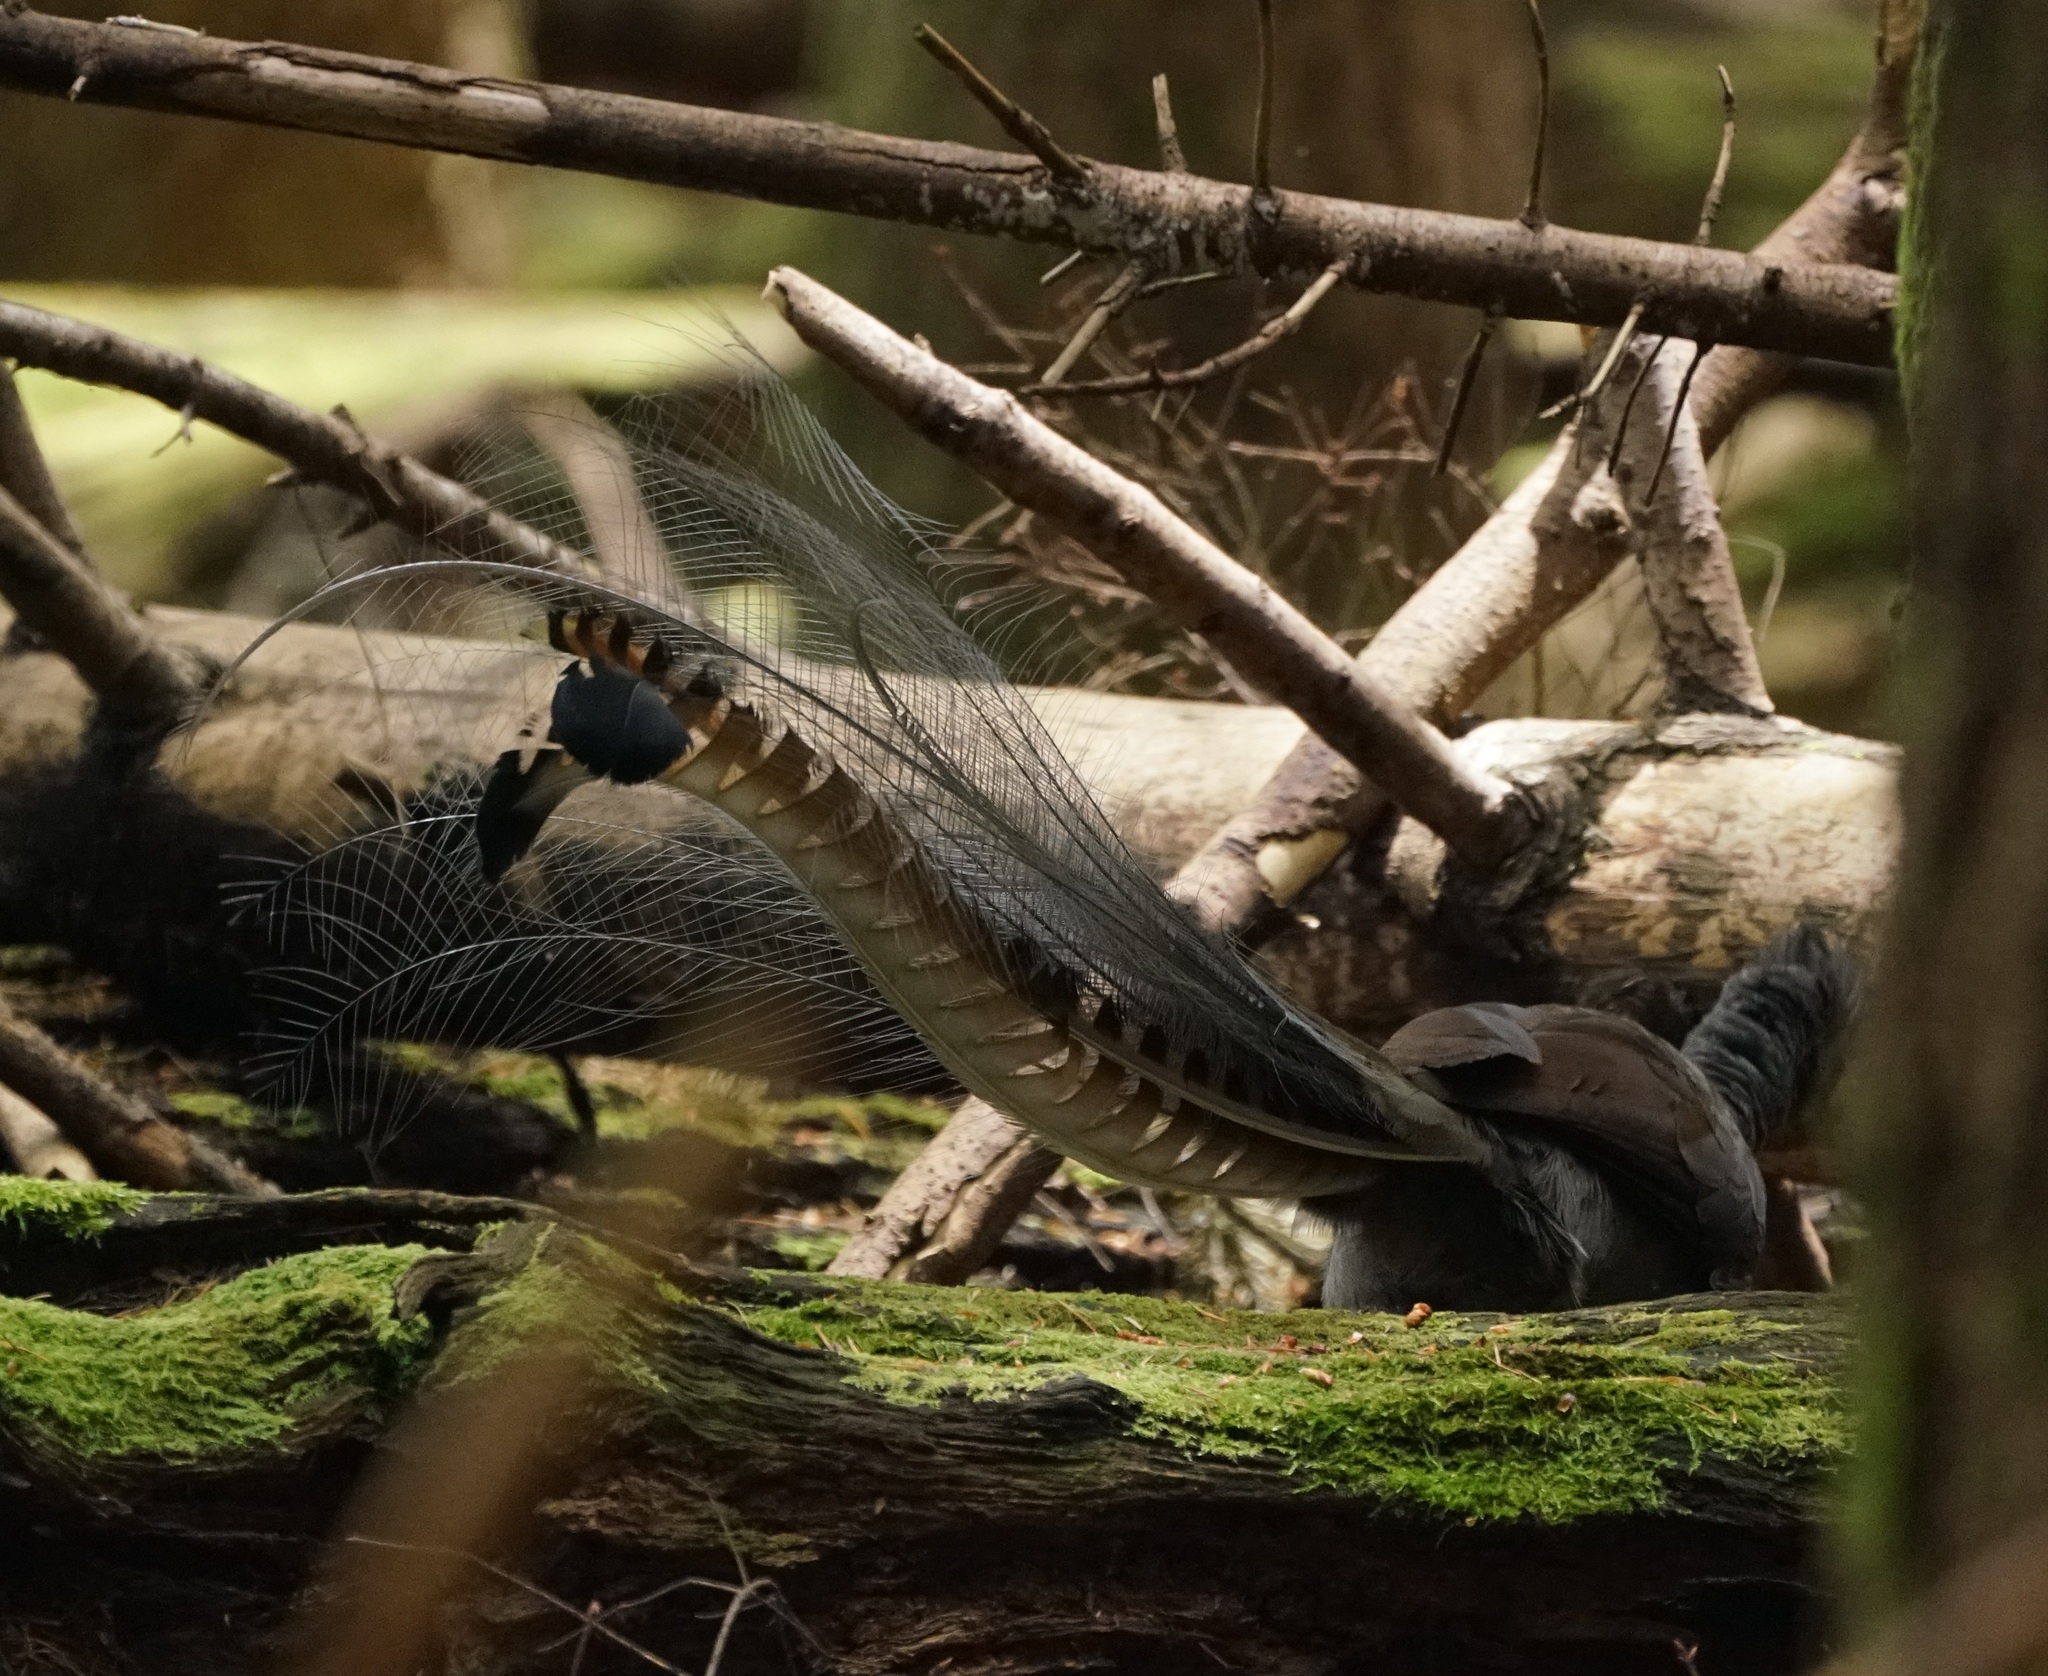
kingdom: Animalia
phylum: Chordata
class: Aves
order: Passeriformes
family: Menuridae
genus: Menura
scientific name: Menura novaehollandiae
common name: Superb lyrebird
